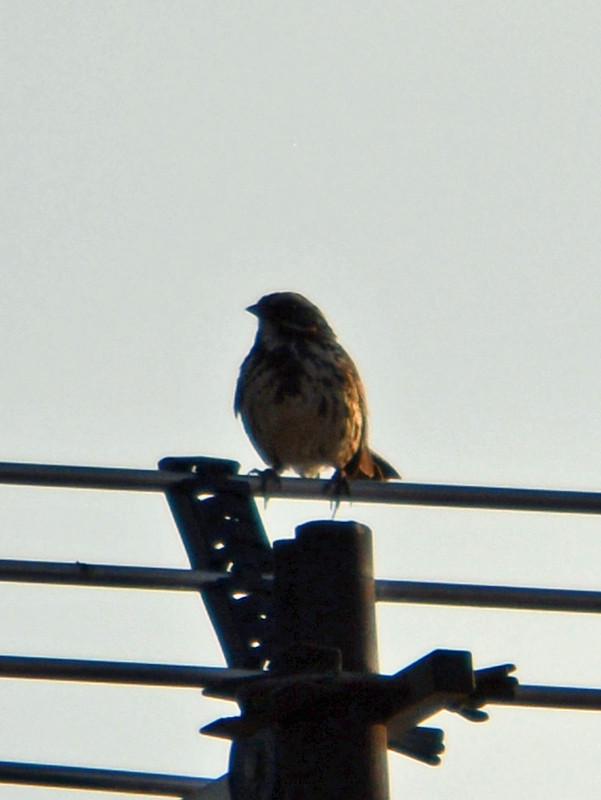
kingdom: Animalia
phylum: Chordata
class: Aves
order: Passeriformes
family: Passerellidae
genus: Melospiza
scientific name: Melospiza melodia
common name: Song sparrow
